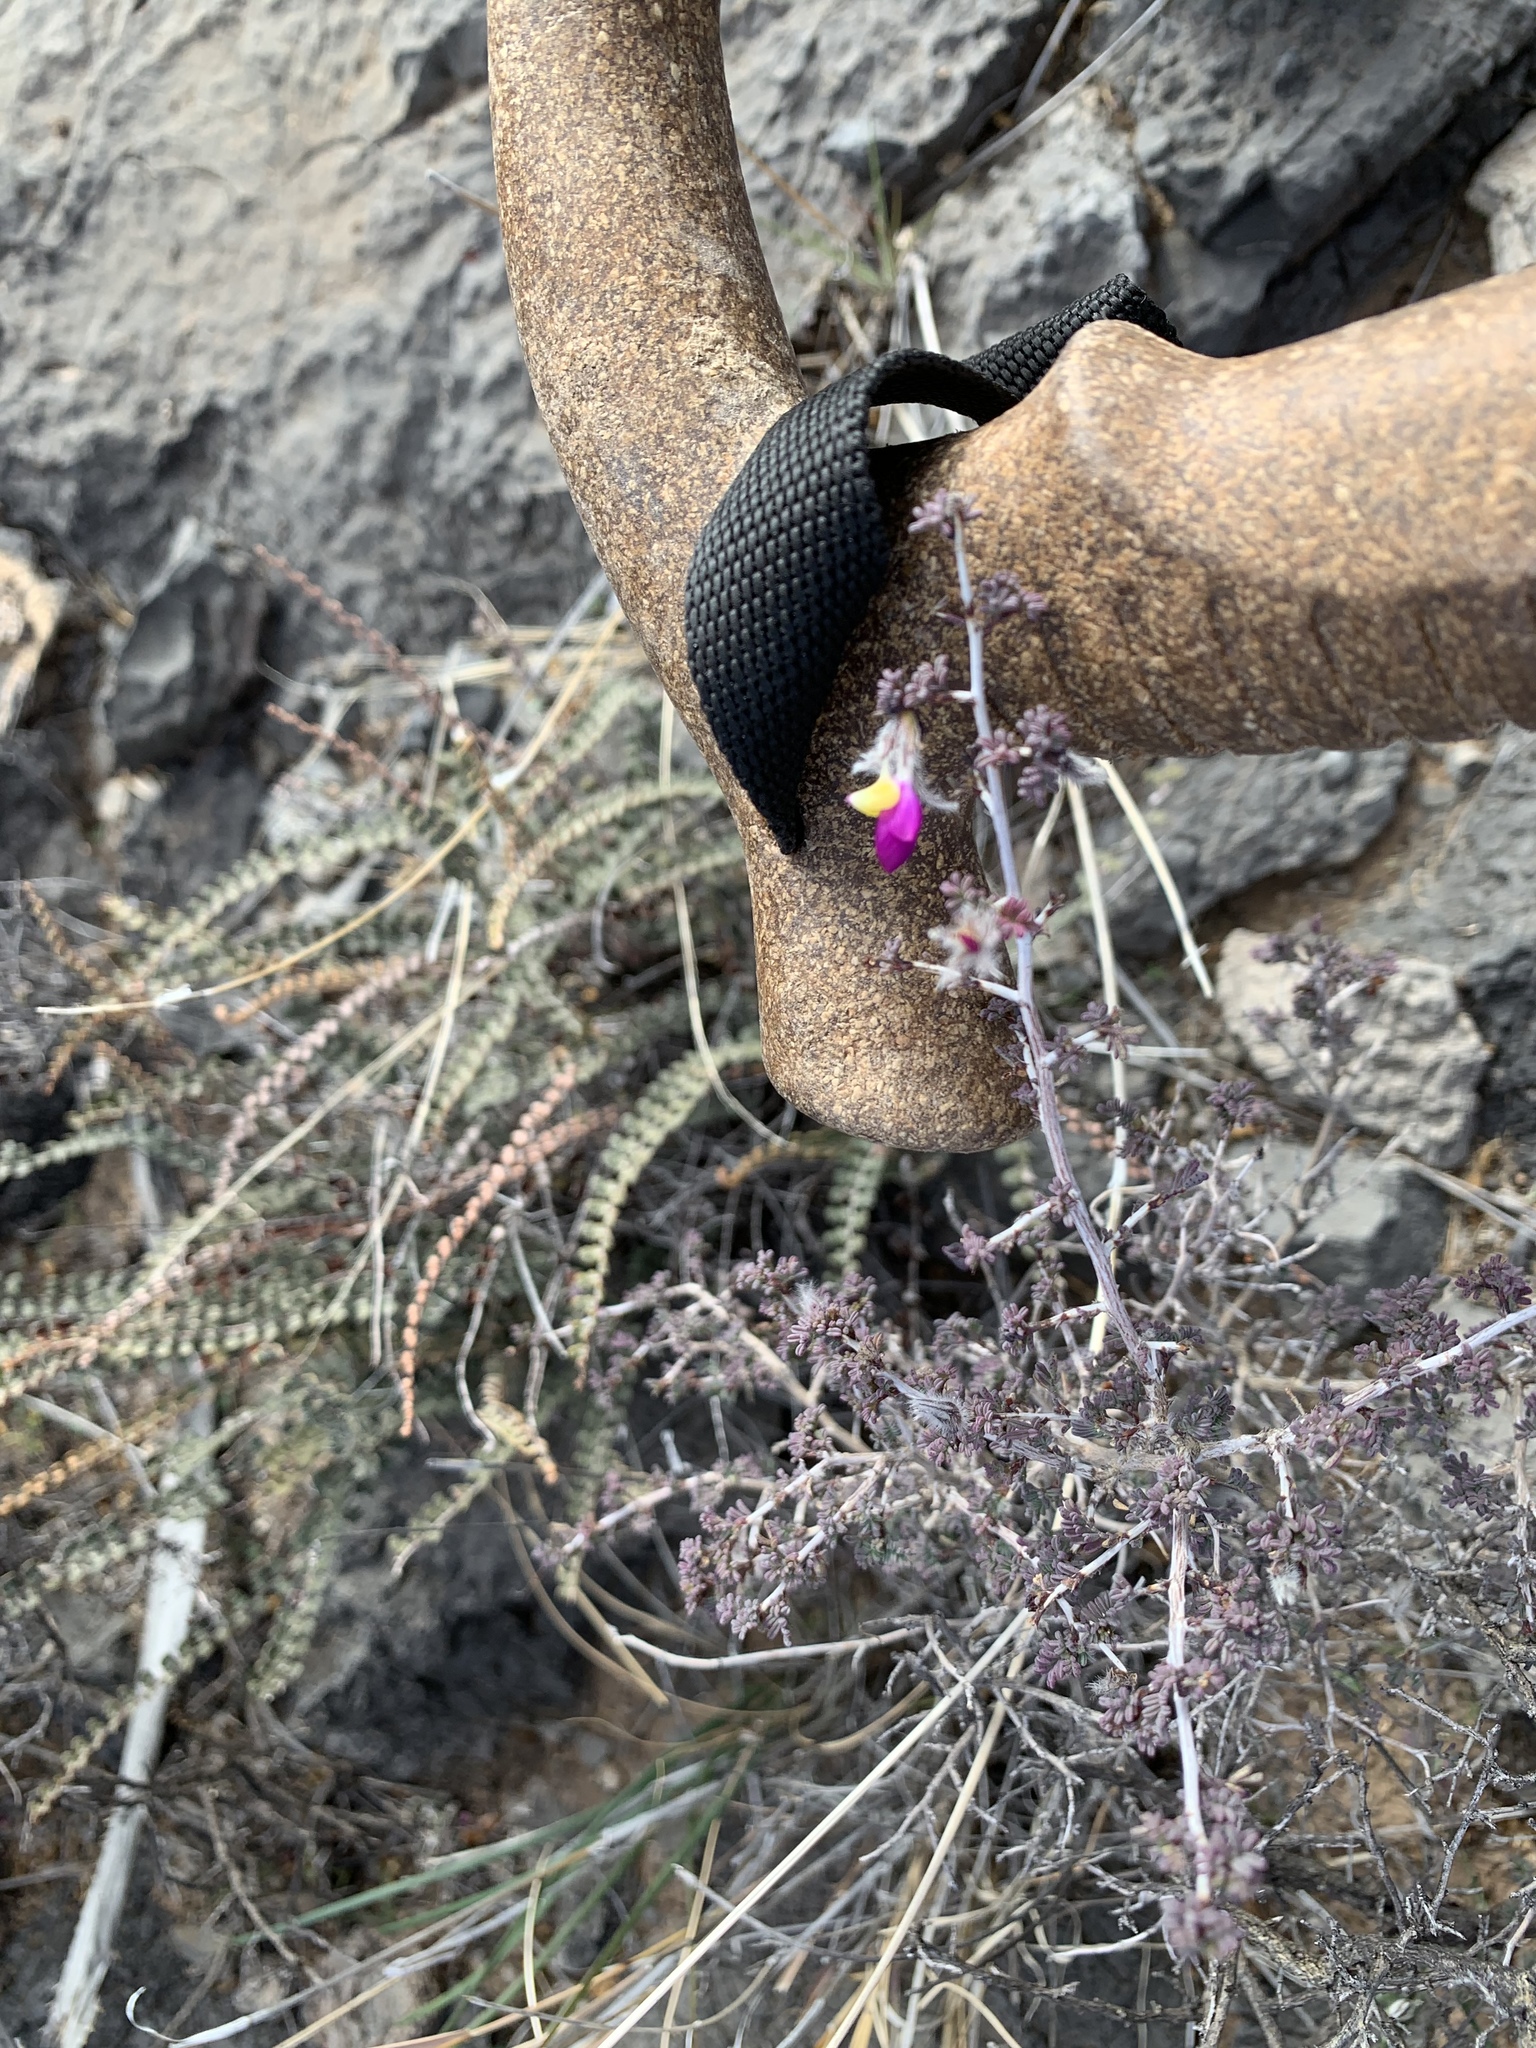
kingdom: Plantae
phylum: Tracheophyta
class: Magnoliopsida
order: Fabales
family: Fabaceae
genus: Dalea
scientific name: Dalea formosa
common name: Feather-plume dalea
